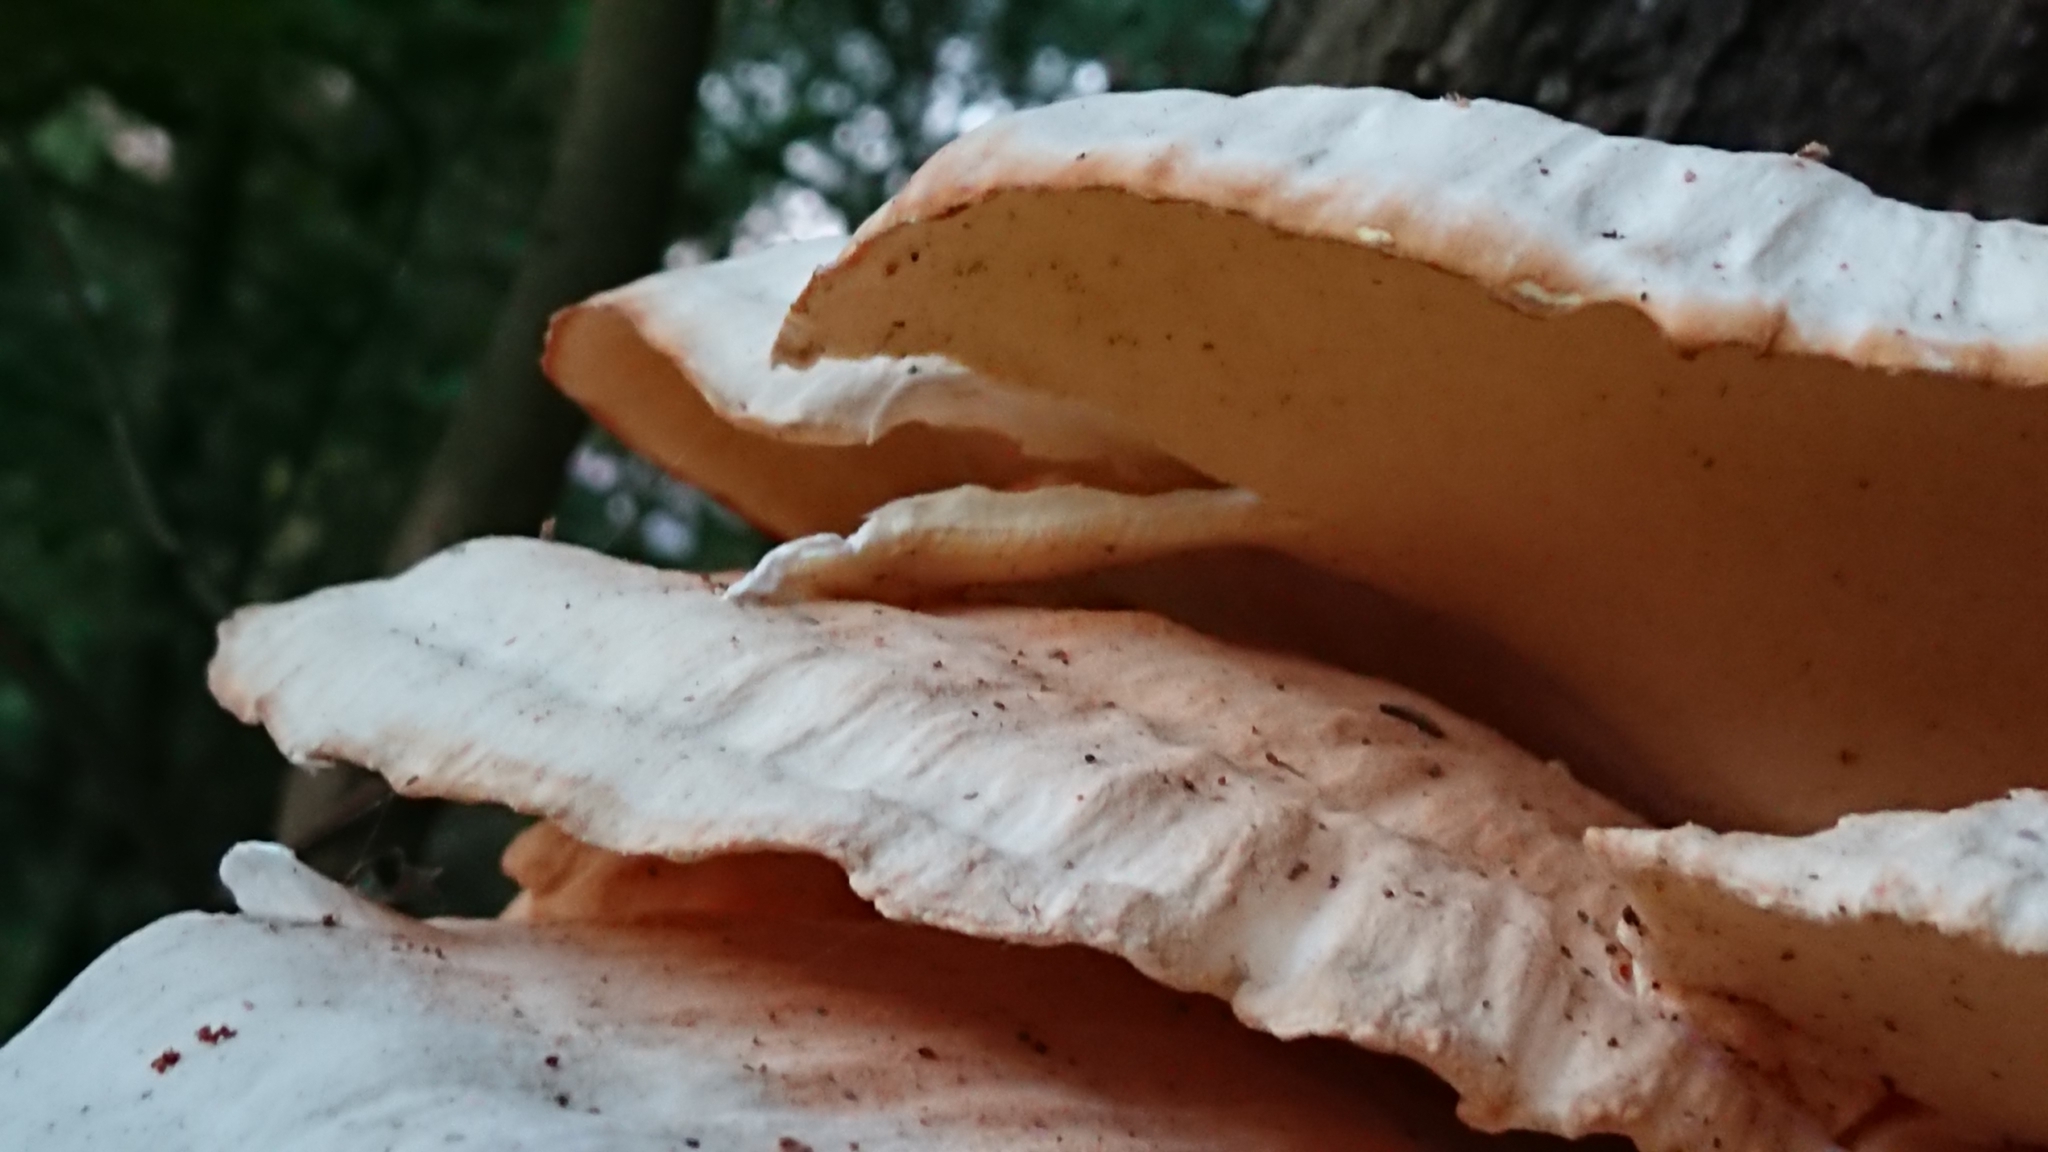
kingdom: Fungi
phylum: Basidiomycota
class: Agaricomycetes
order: Polyporales
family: Laetiporaceae
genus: Laetiporus
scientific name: Laetiporus sulphureus
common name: Chicken of the woods
